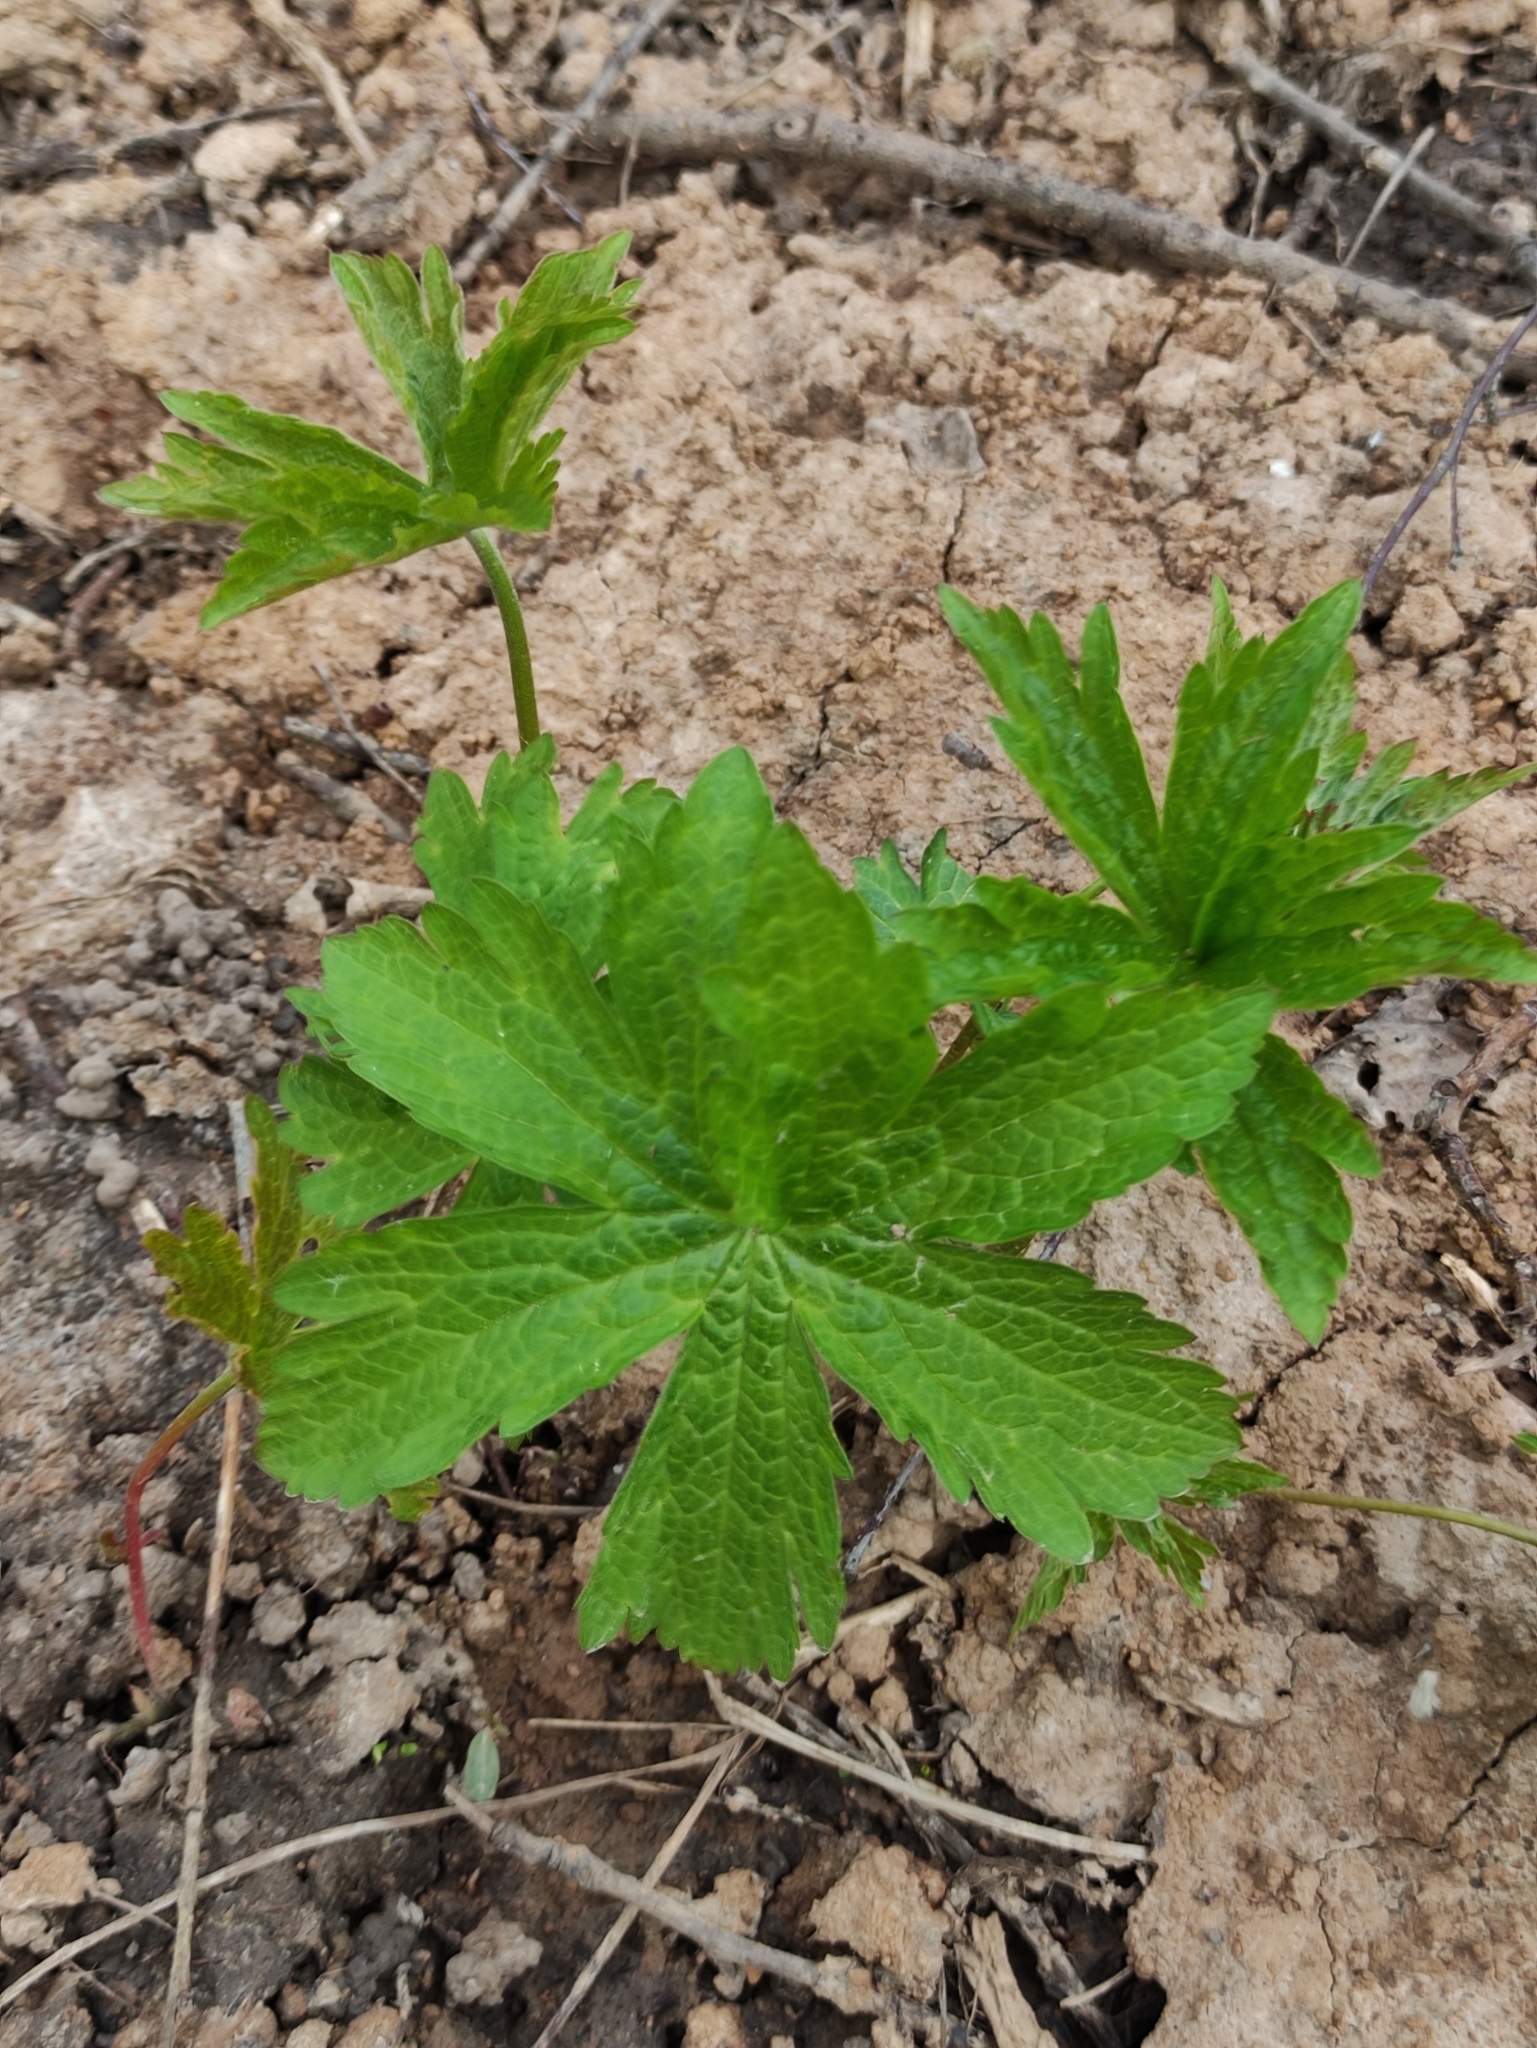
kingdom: Plantae
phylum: Tracheophyta
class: Magnoliopsida
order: Geraniales
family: Geraniaceae
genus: Geranium
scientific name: Geranium sylvaticum
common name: Wood crane's-bill
